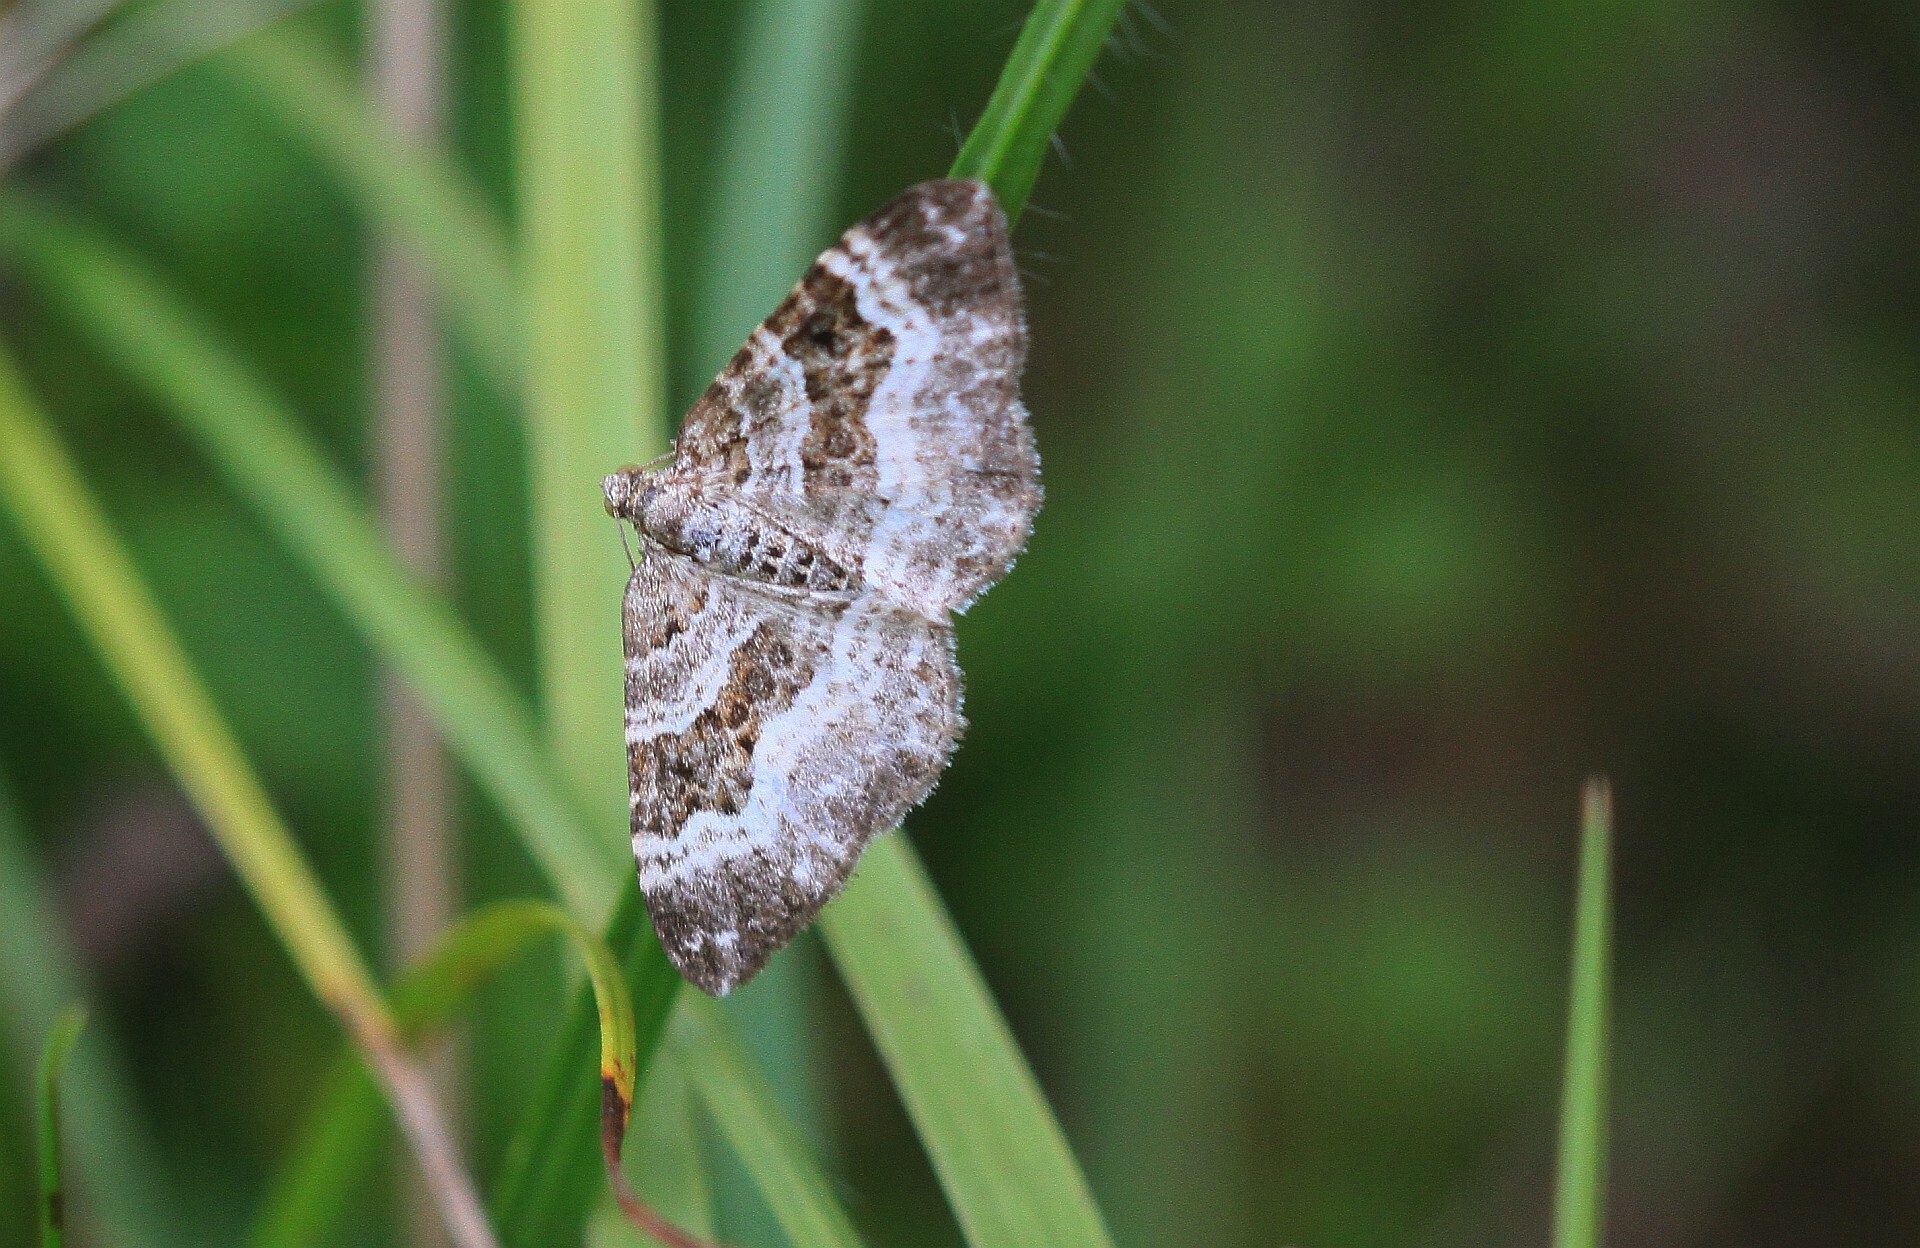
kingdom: Animalia
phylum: Arthropoda
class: Insecta
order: Lepidoptera
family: Geometridae
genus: Epirrhoe
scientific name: Epirrhoe alternata
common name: Common carpet
